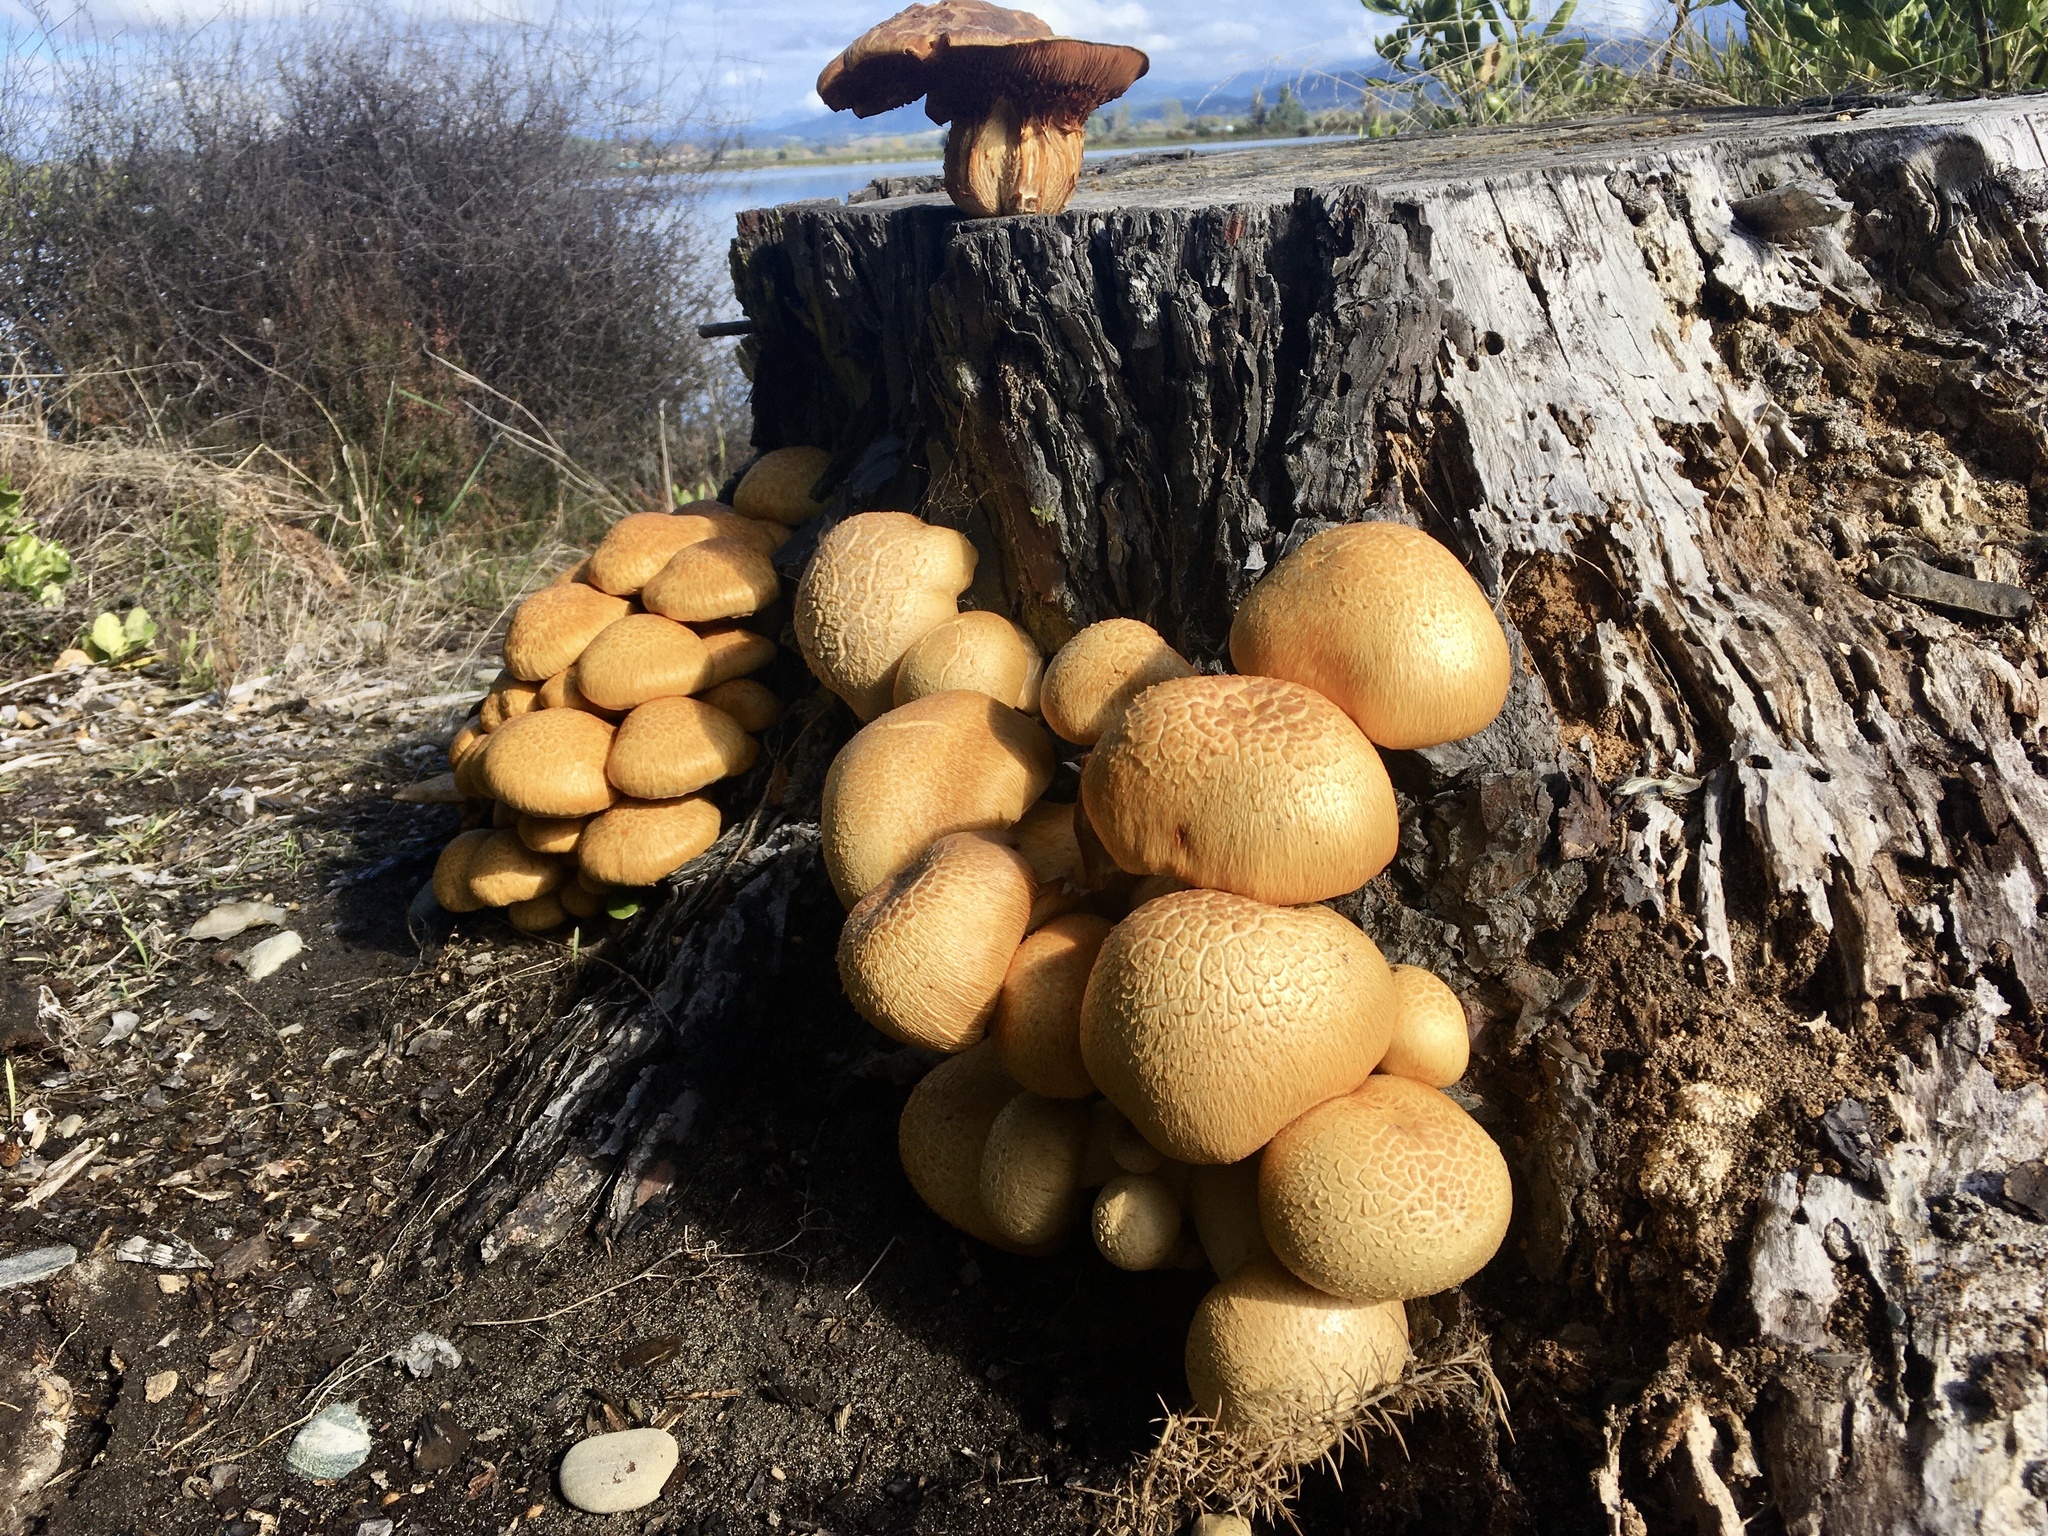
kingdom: Fungi
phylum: Basidiomycota
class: Agaricomycetes
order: Agaricales
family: Hymenogastraceae
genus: Gymnopilus
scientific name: Gymnopilus junonius
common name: Spectacular rustgill
